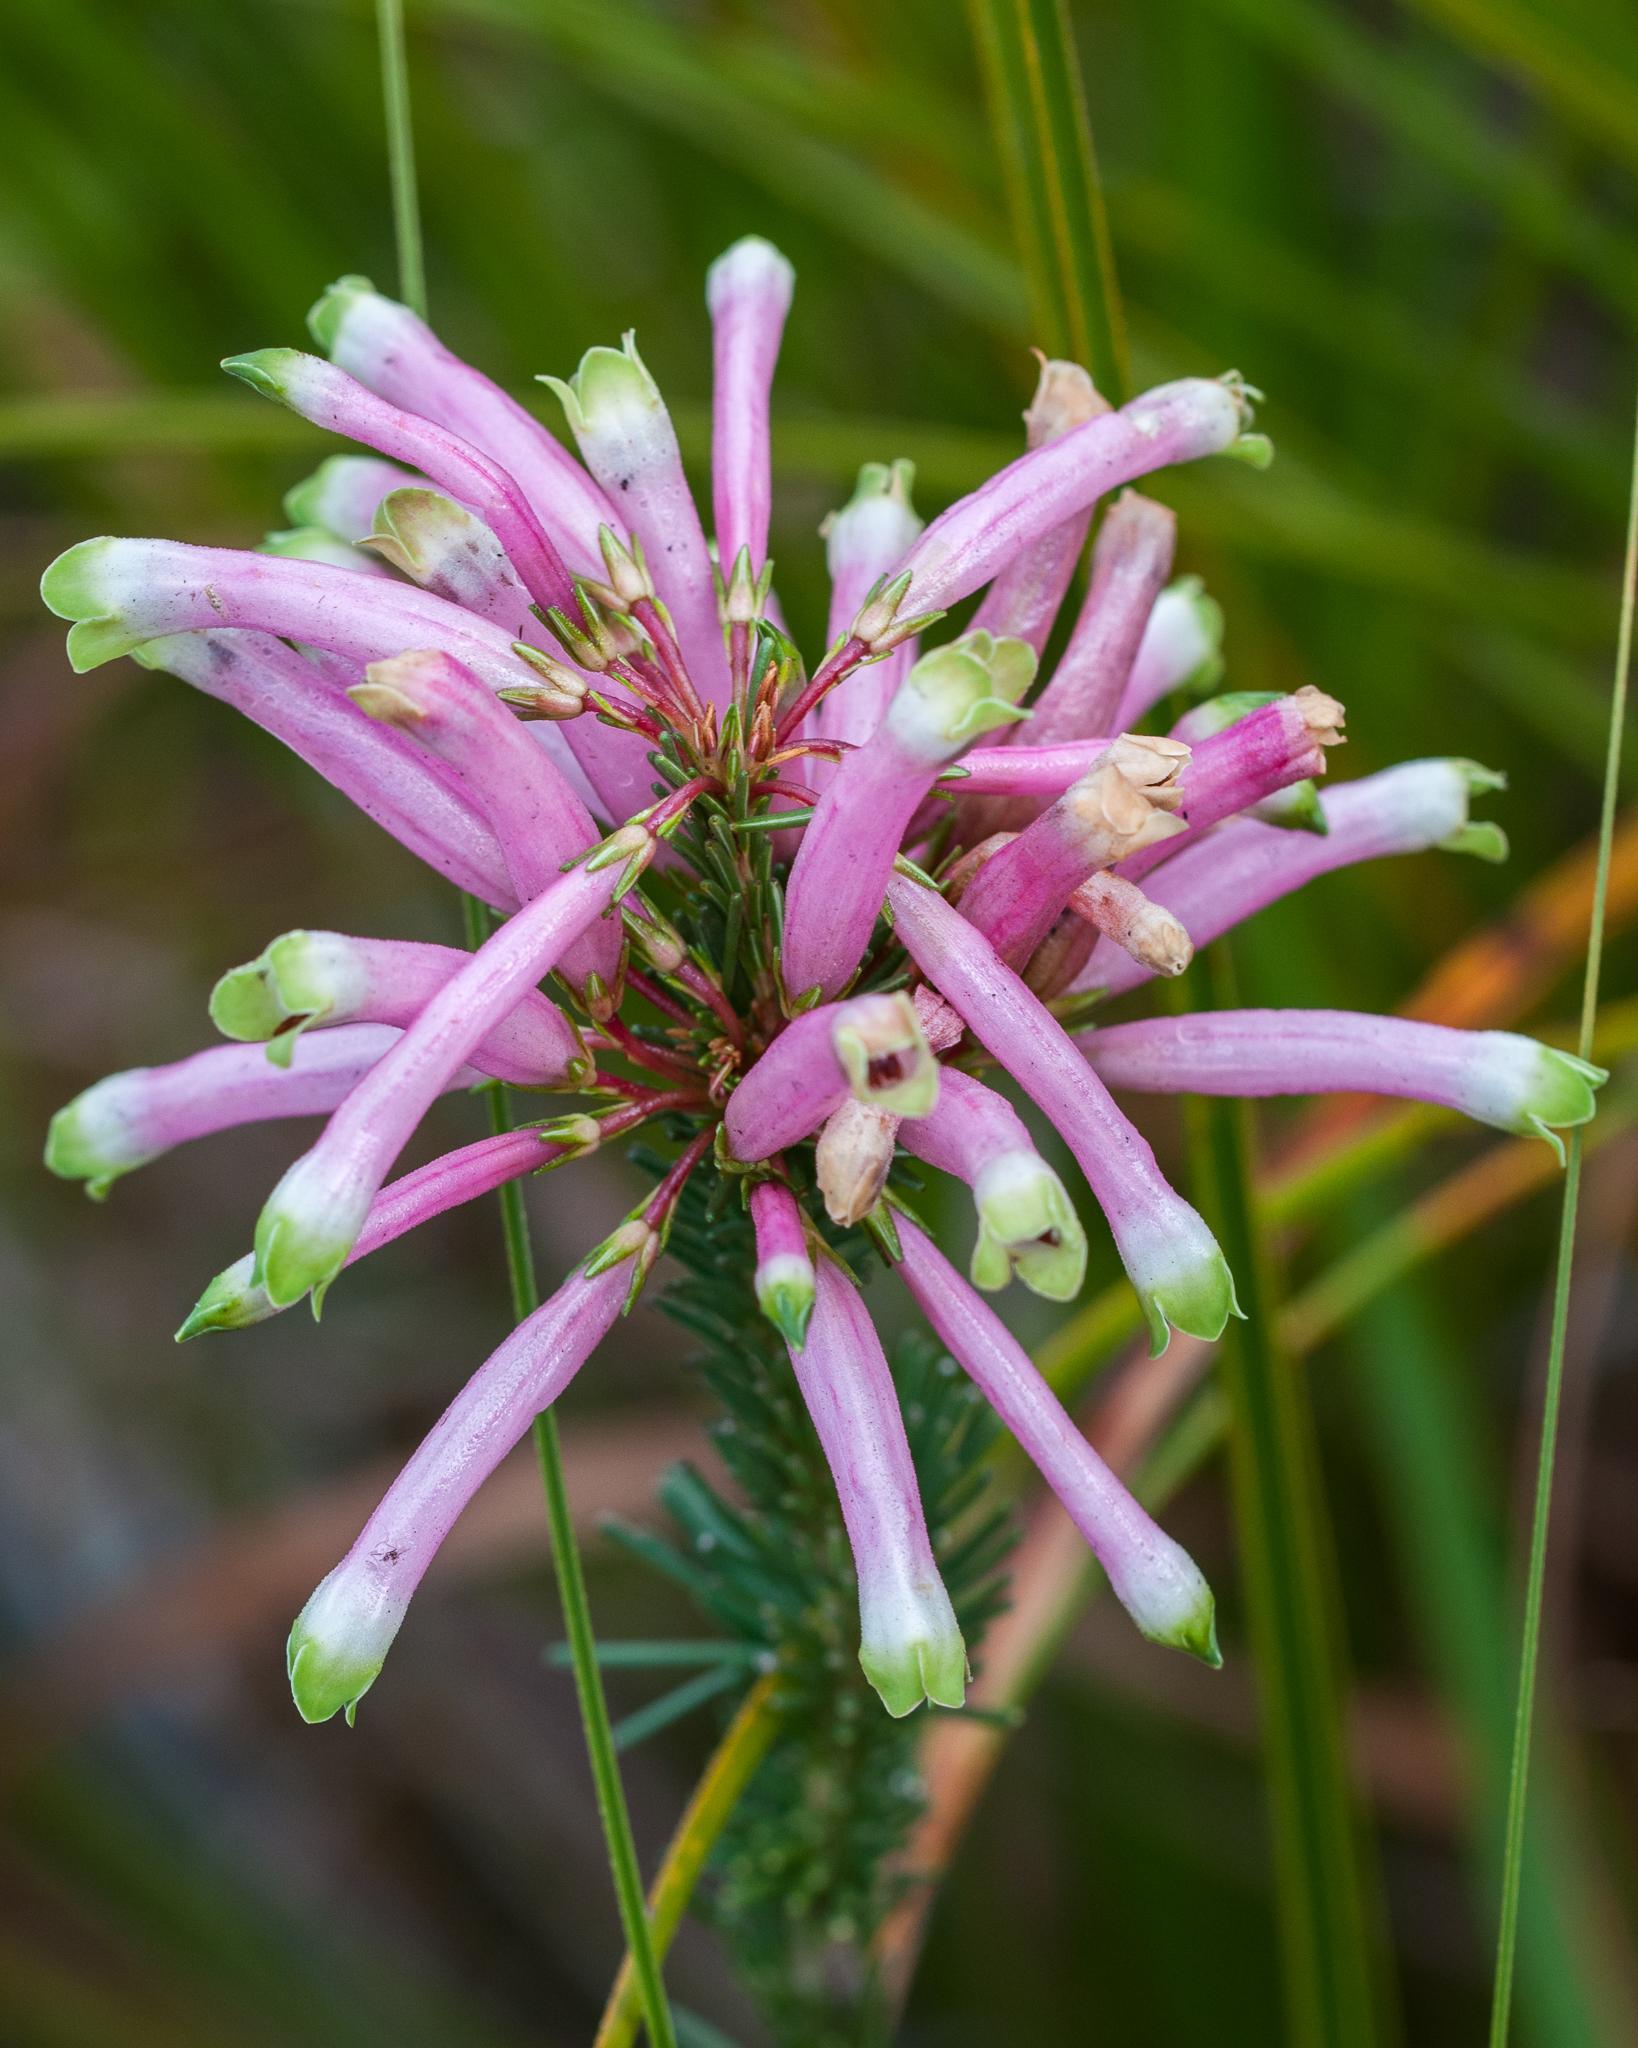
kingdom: Plantae
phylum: Tracheophyta
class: Magnoliopsida
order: Ericales
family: Ericaceae
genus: Erica
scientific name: Erica fascicularis
